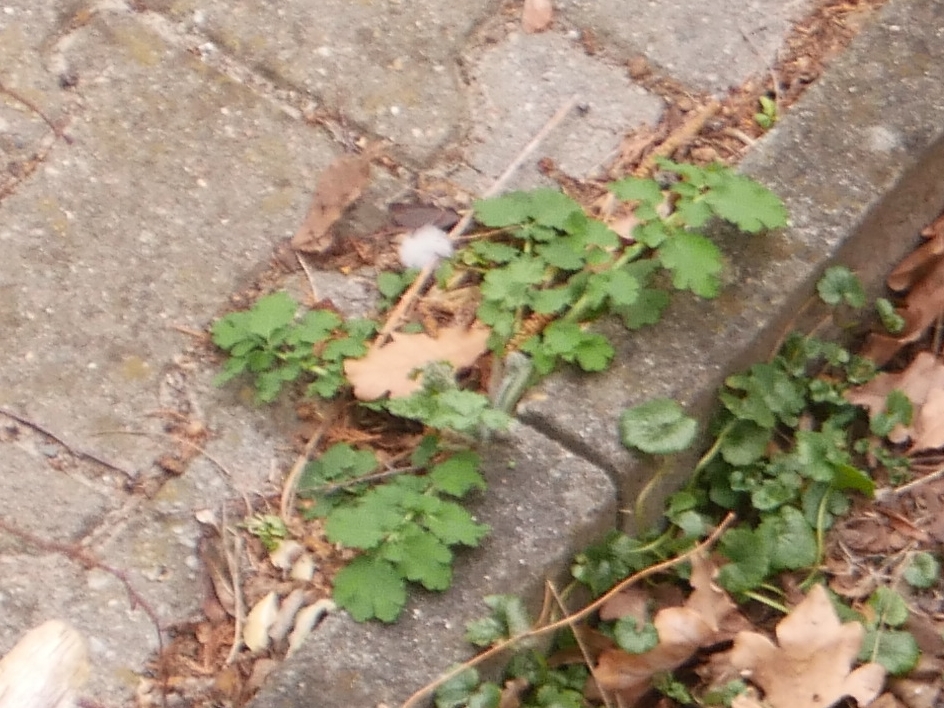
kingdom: Plantae
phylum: Tracheophyta
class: Magnoliopsida
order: Ranunculales
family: Papaveraceae
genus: Chelidonium
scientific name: Chelidonium majus
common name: Greater celandine
